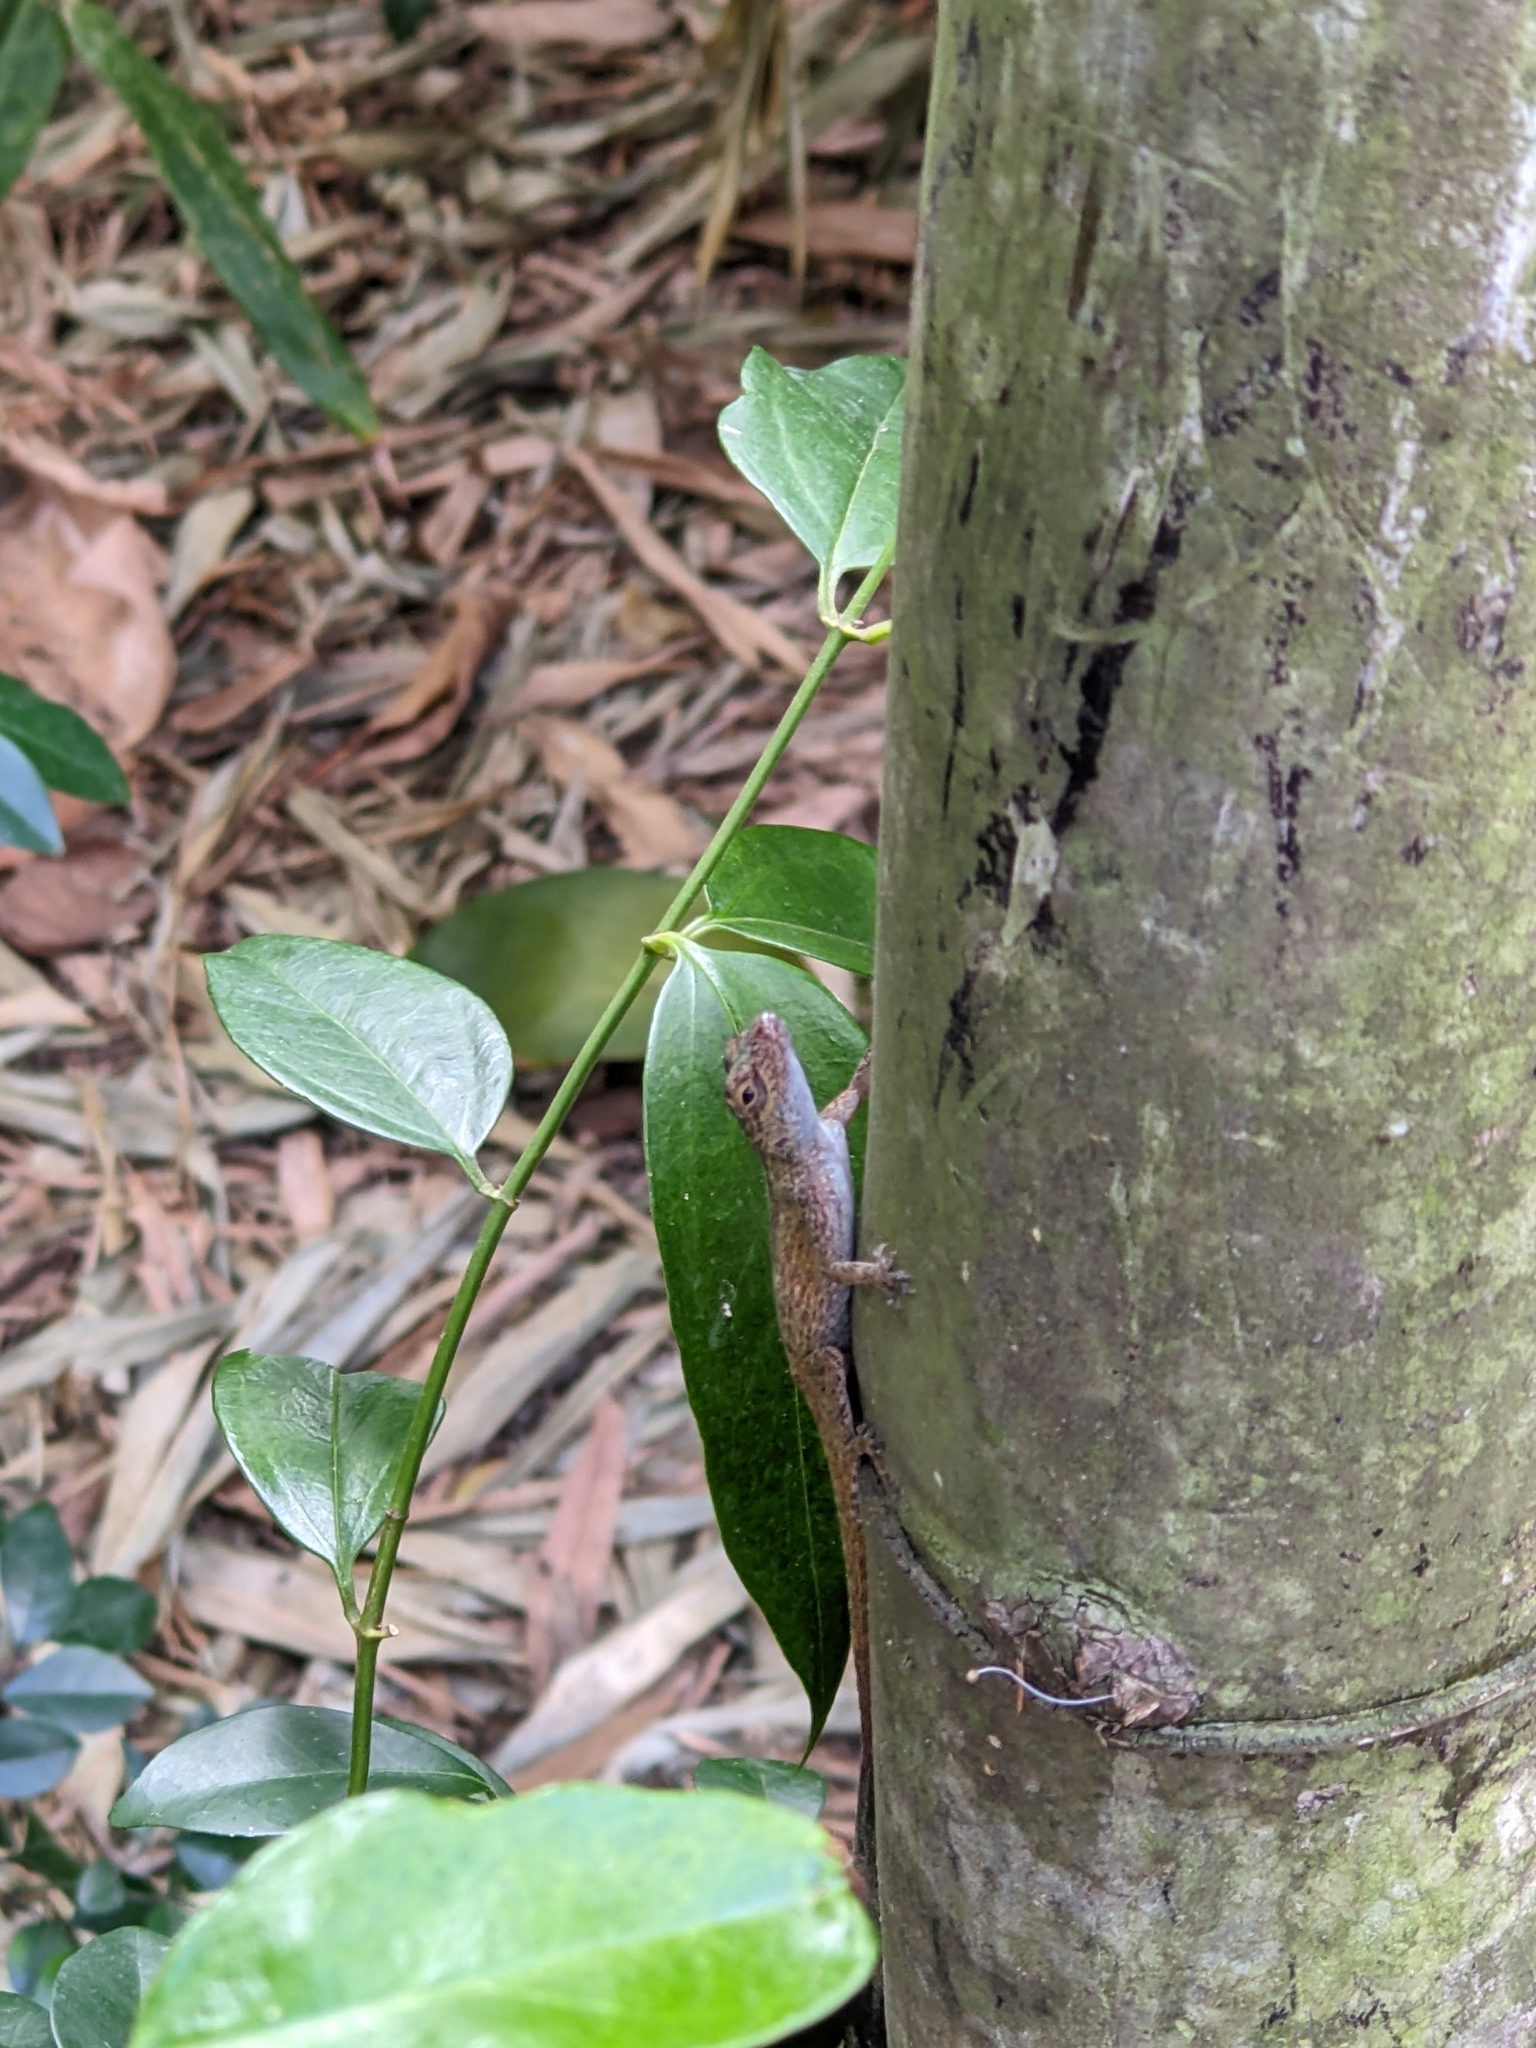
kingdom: Animalia
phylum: Chordata
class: Squamata
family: Dactyloidae
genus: Anolis
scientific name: Anolis distichus
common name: Bark anole
